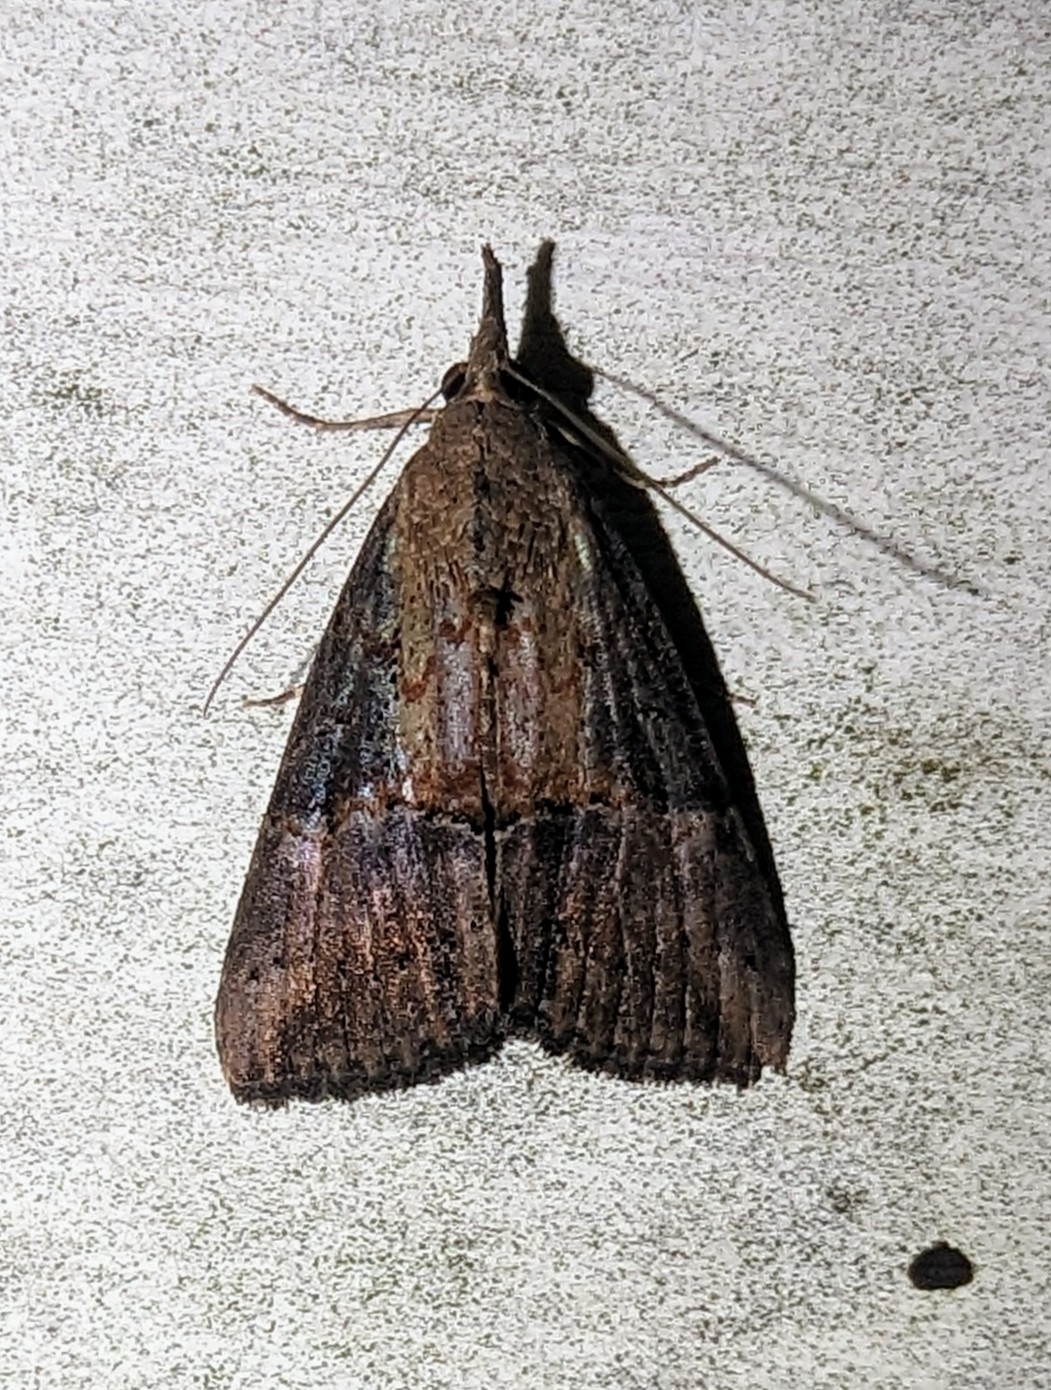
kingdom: Animalia
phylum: Arthropoda
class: Insecta
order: Lepidoptera
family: Erebidae
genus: Hypena
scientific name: Hypena scabra
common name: Green cloverworm
